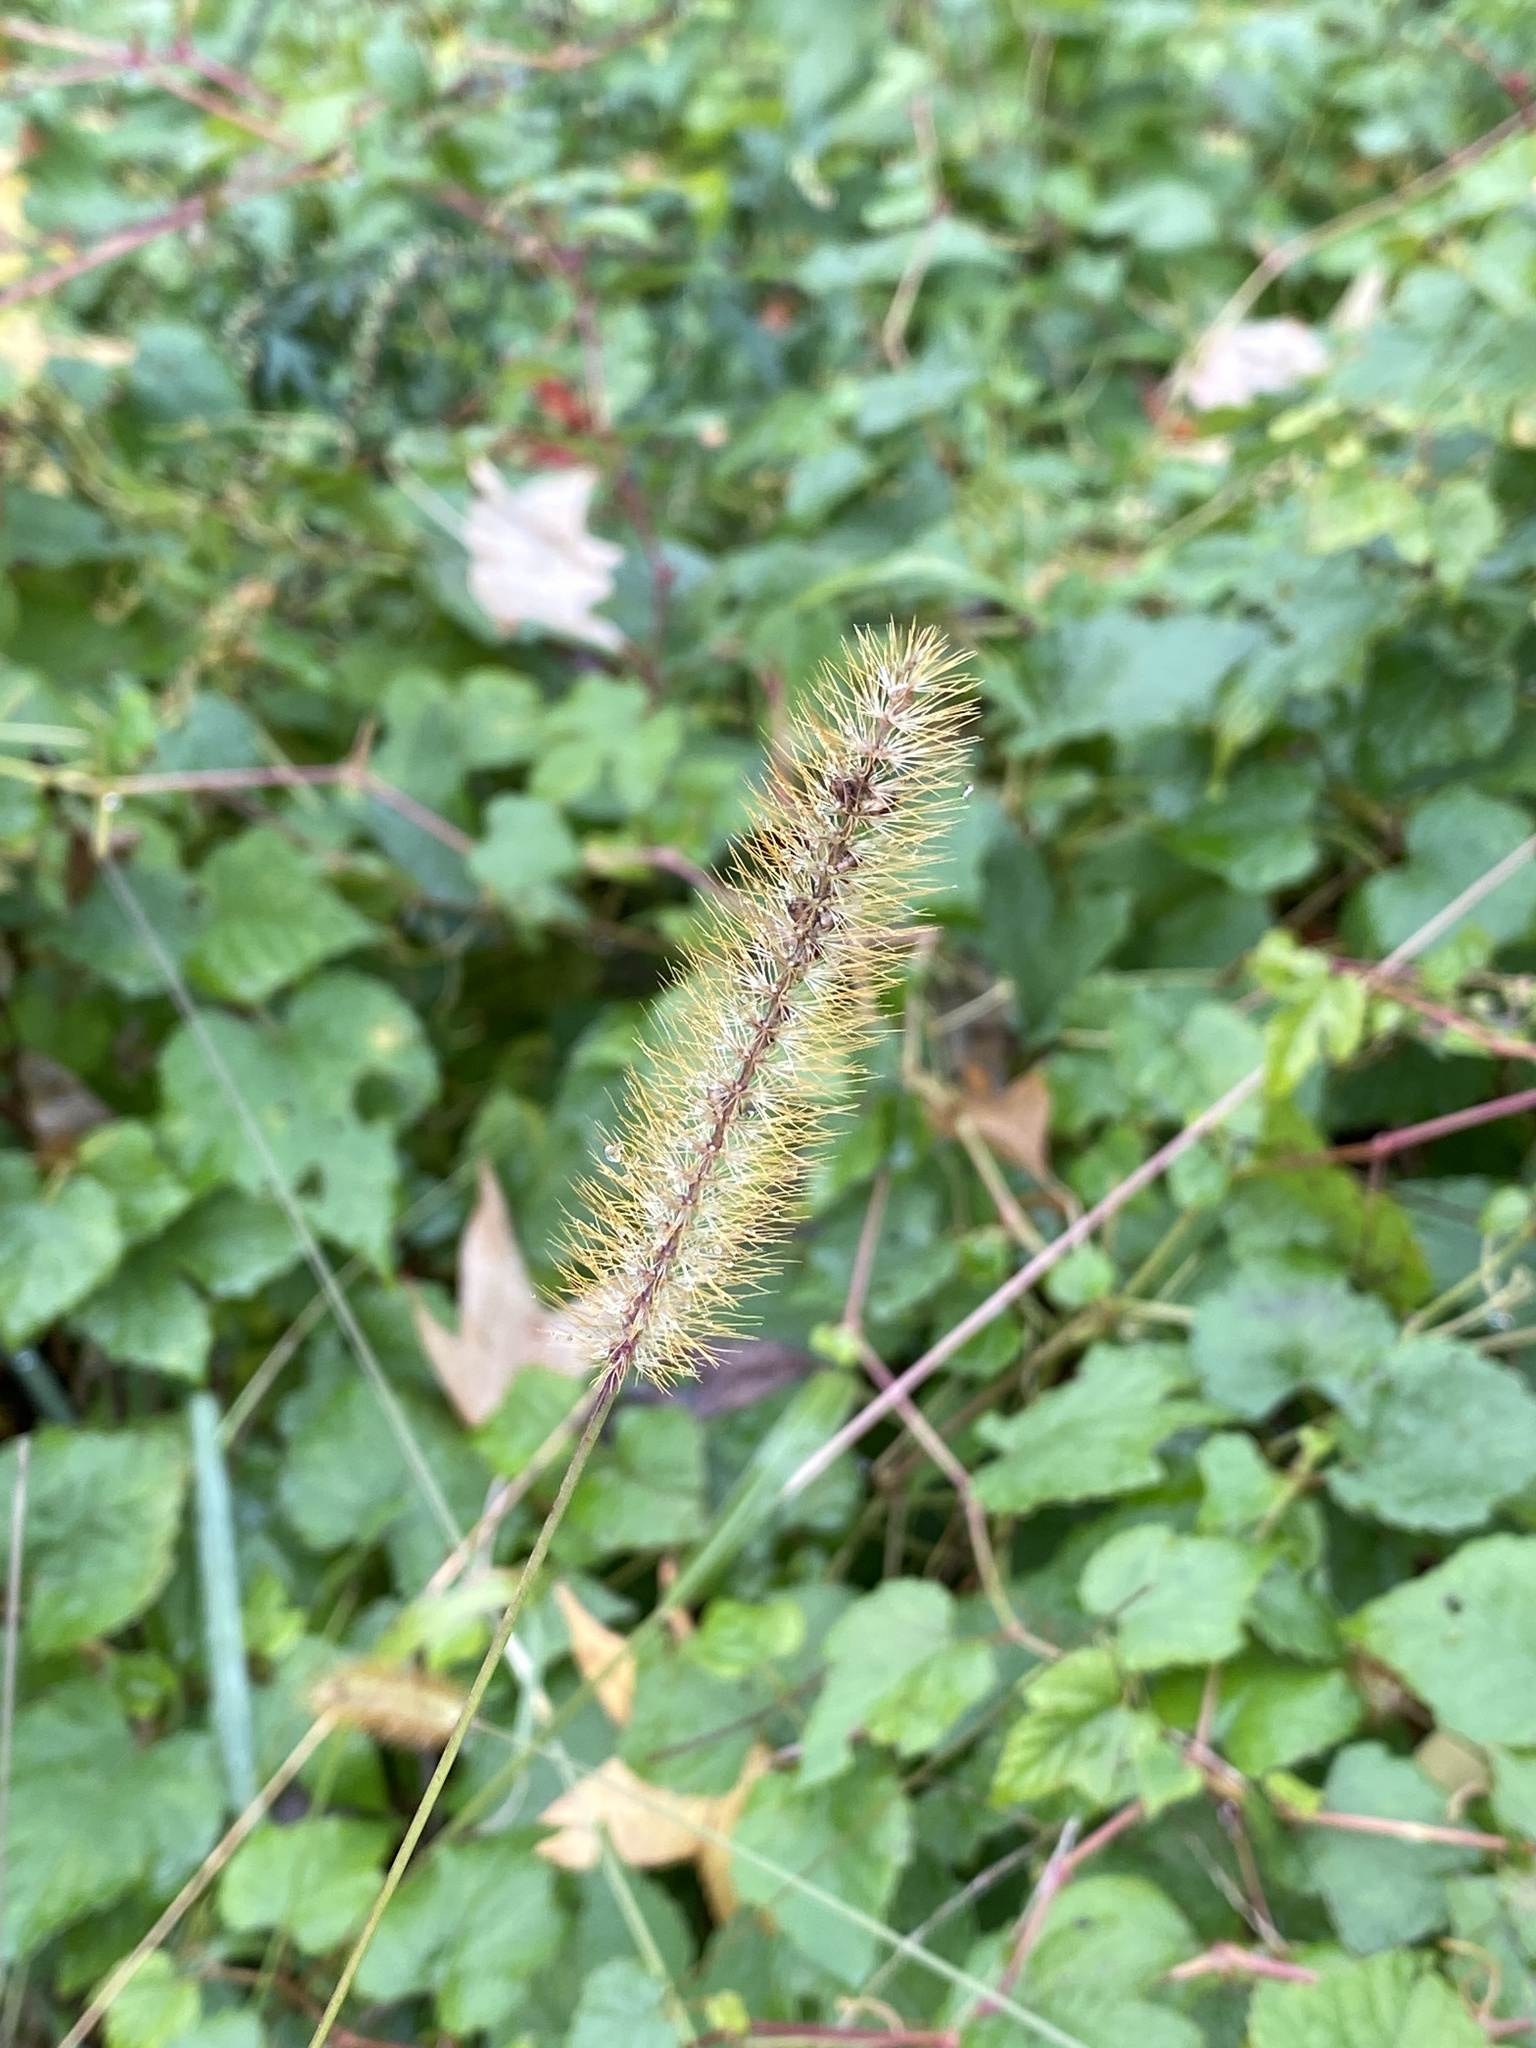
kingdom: Plantae
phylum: Tracheophyta
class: Liliopsida
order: Poales
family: Poaceae
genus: Setaria
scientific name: Setaria pumila
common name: Yellow bristle-grass
